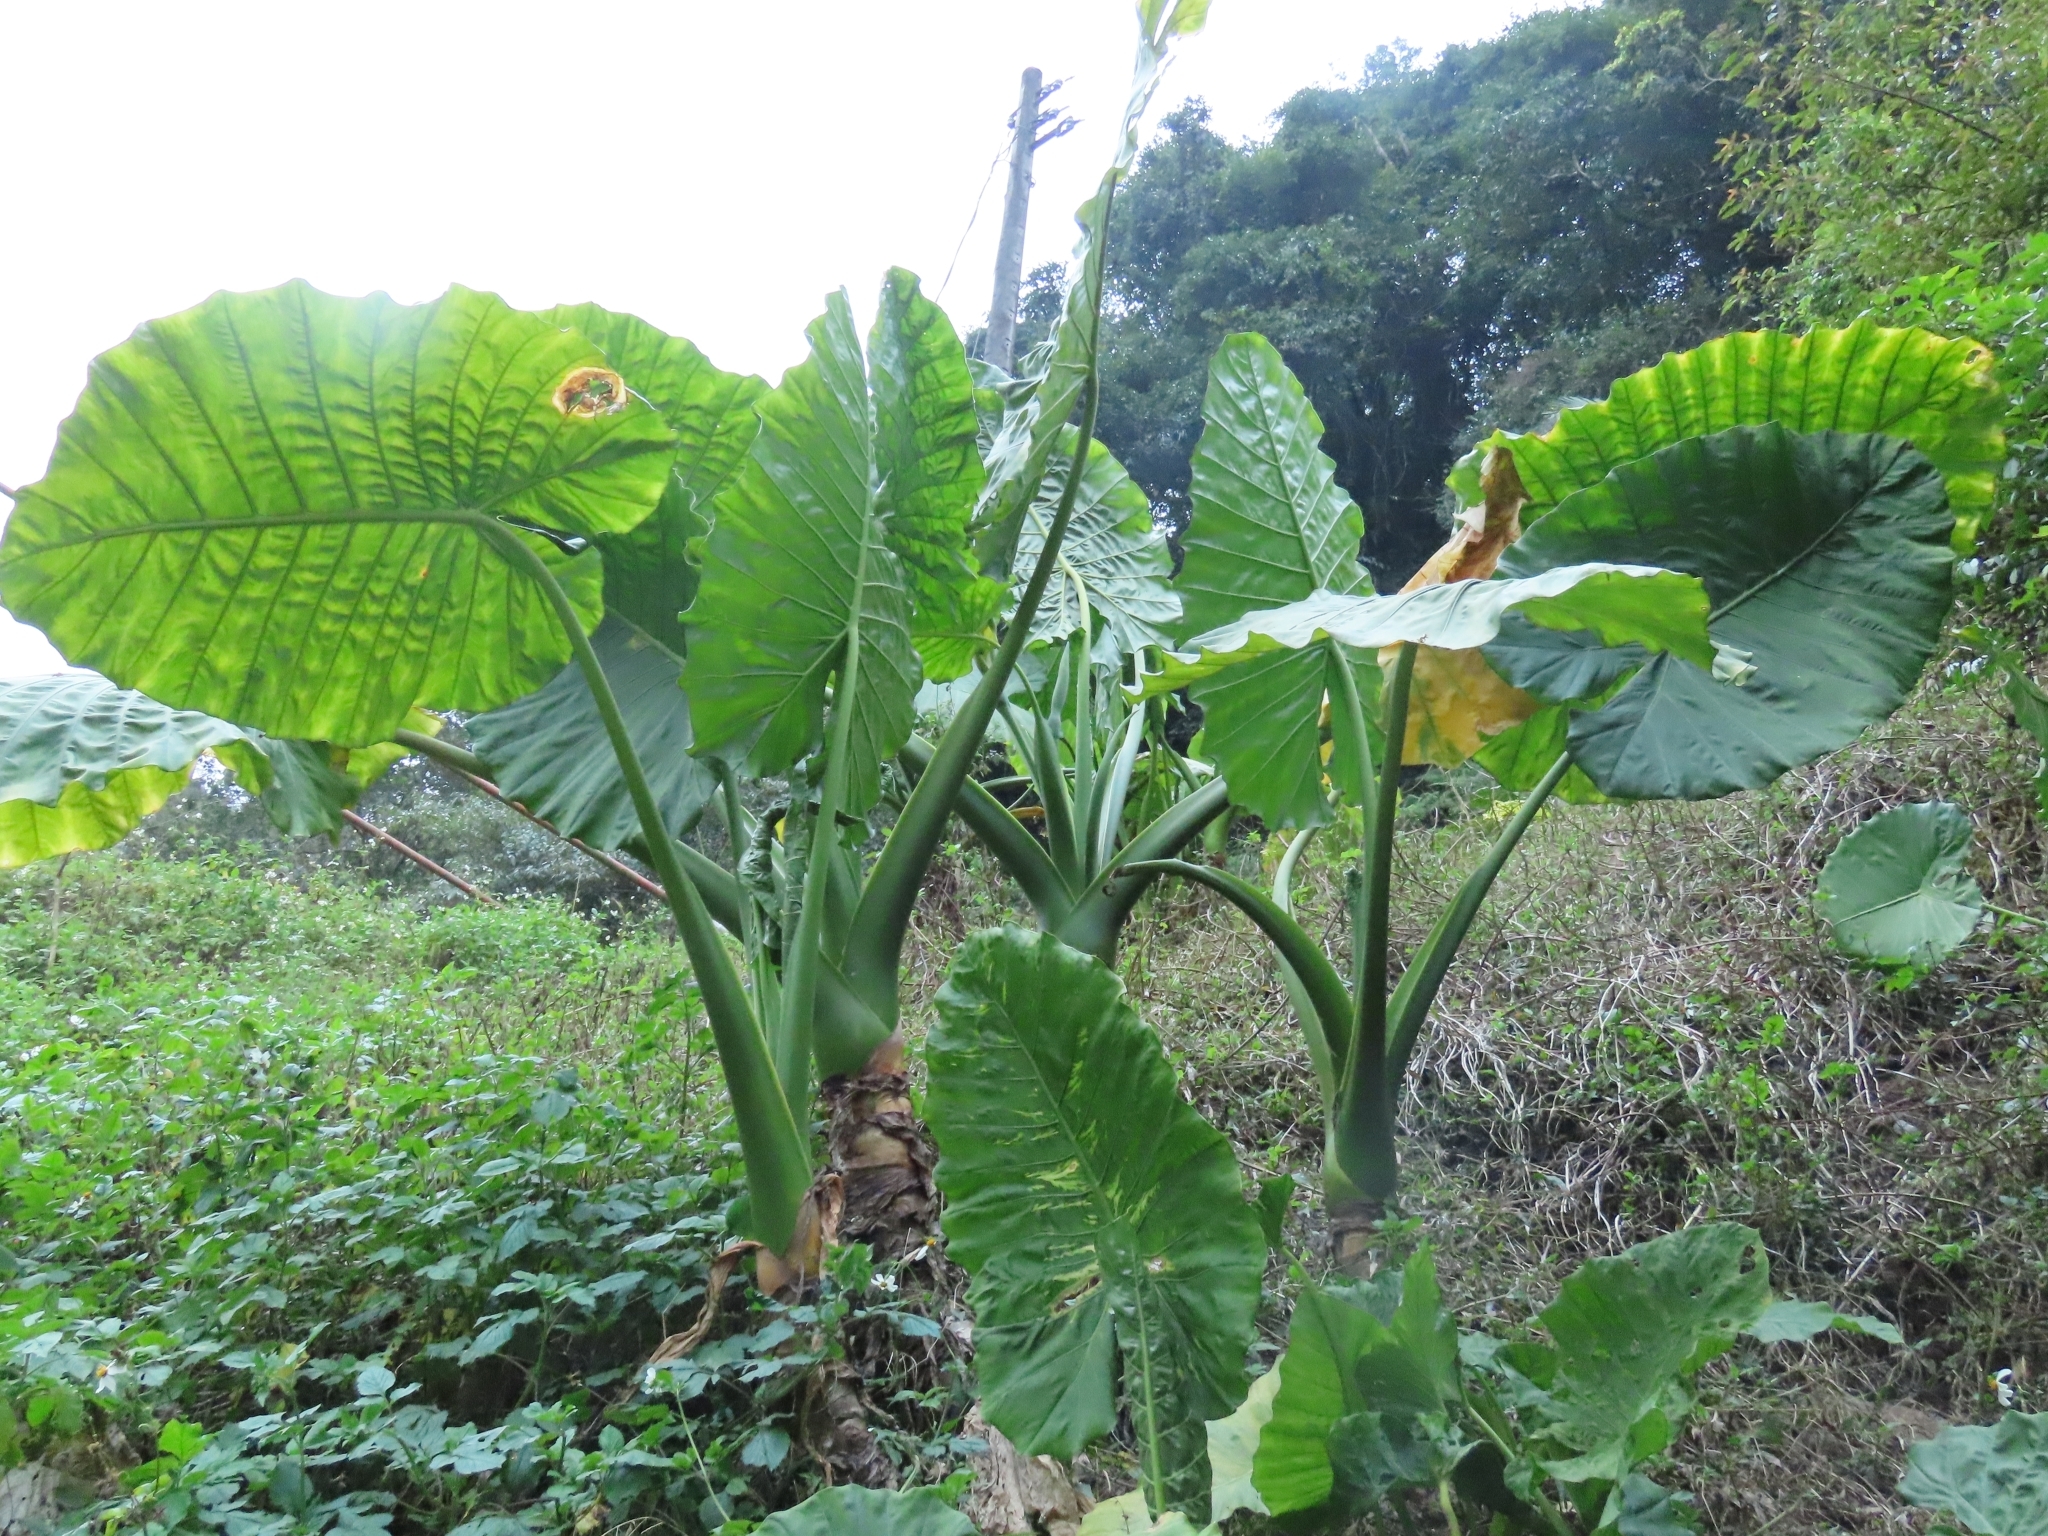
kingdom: Plantae
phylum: Tracheophyta
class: Liliopsida
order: Alismatales
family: Araceae
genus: Alocasia
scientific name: Alocasia odora
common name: Asian taro
